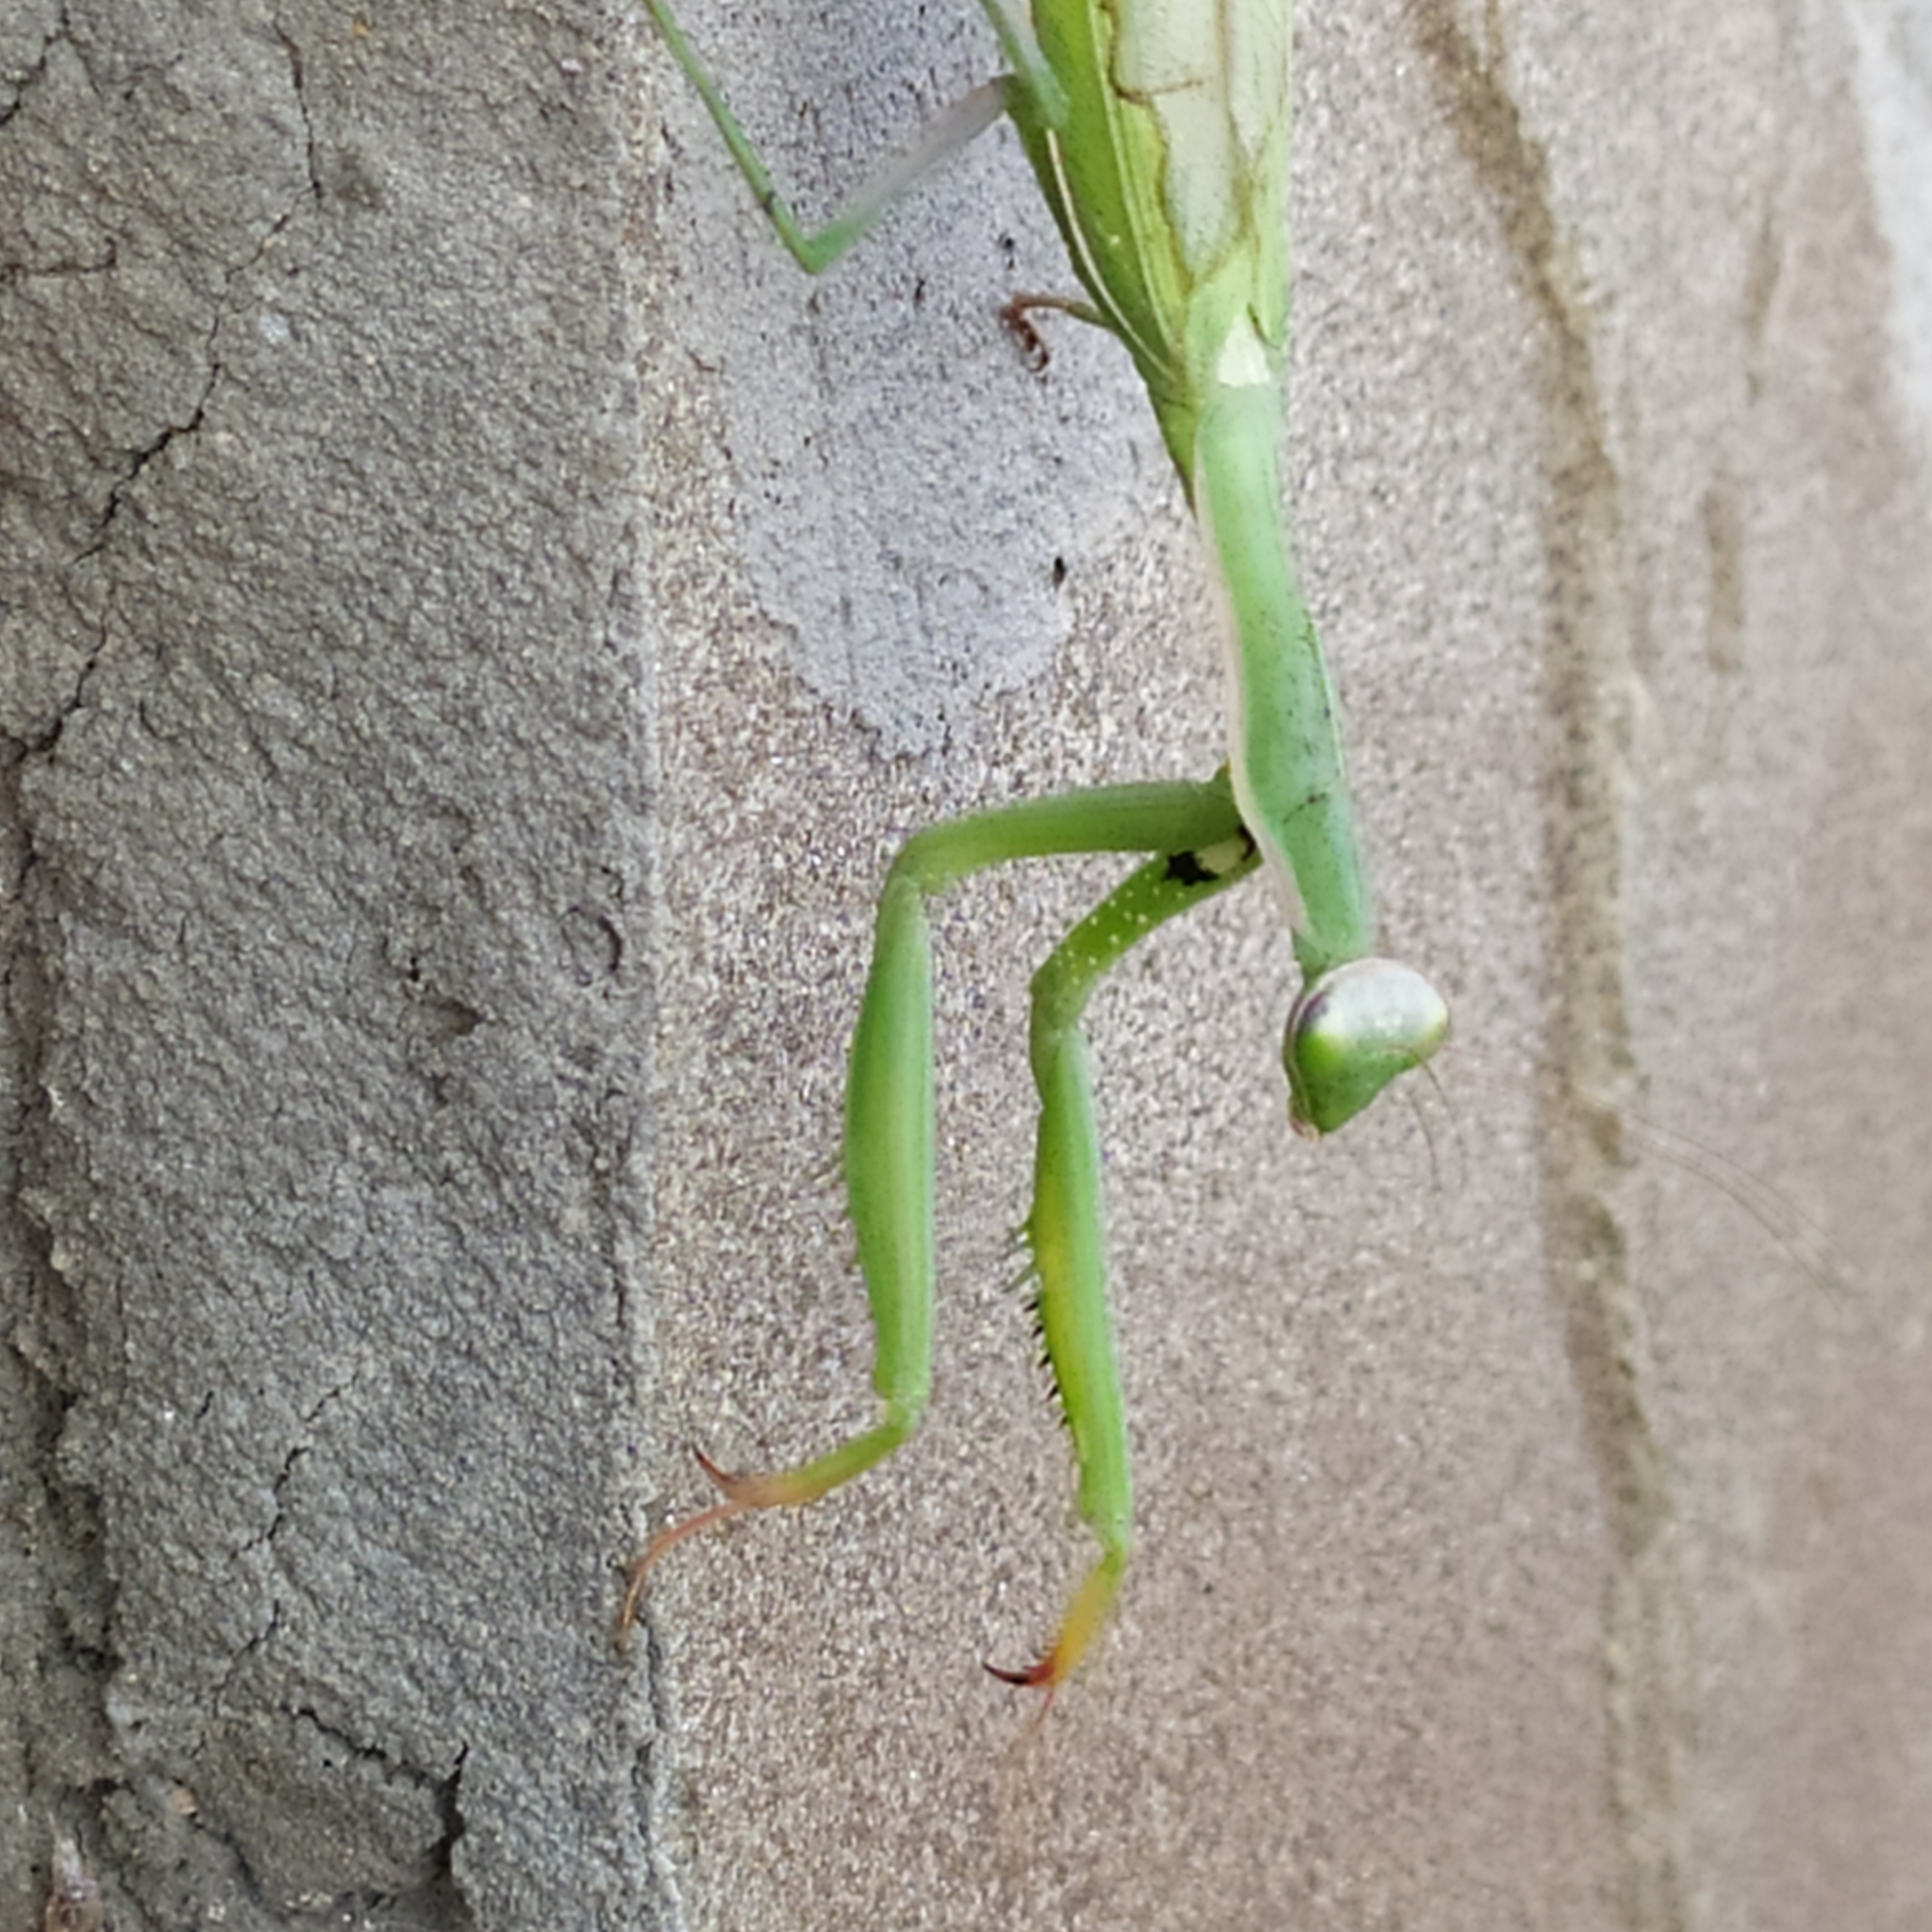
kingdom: Animalia
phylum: Arthropoda
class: Insecta
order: Mantodea
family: Mantidae
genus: Mantis
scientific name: Mantis religiosa
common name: Praying mantis
